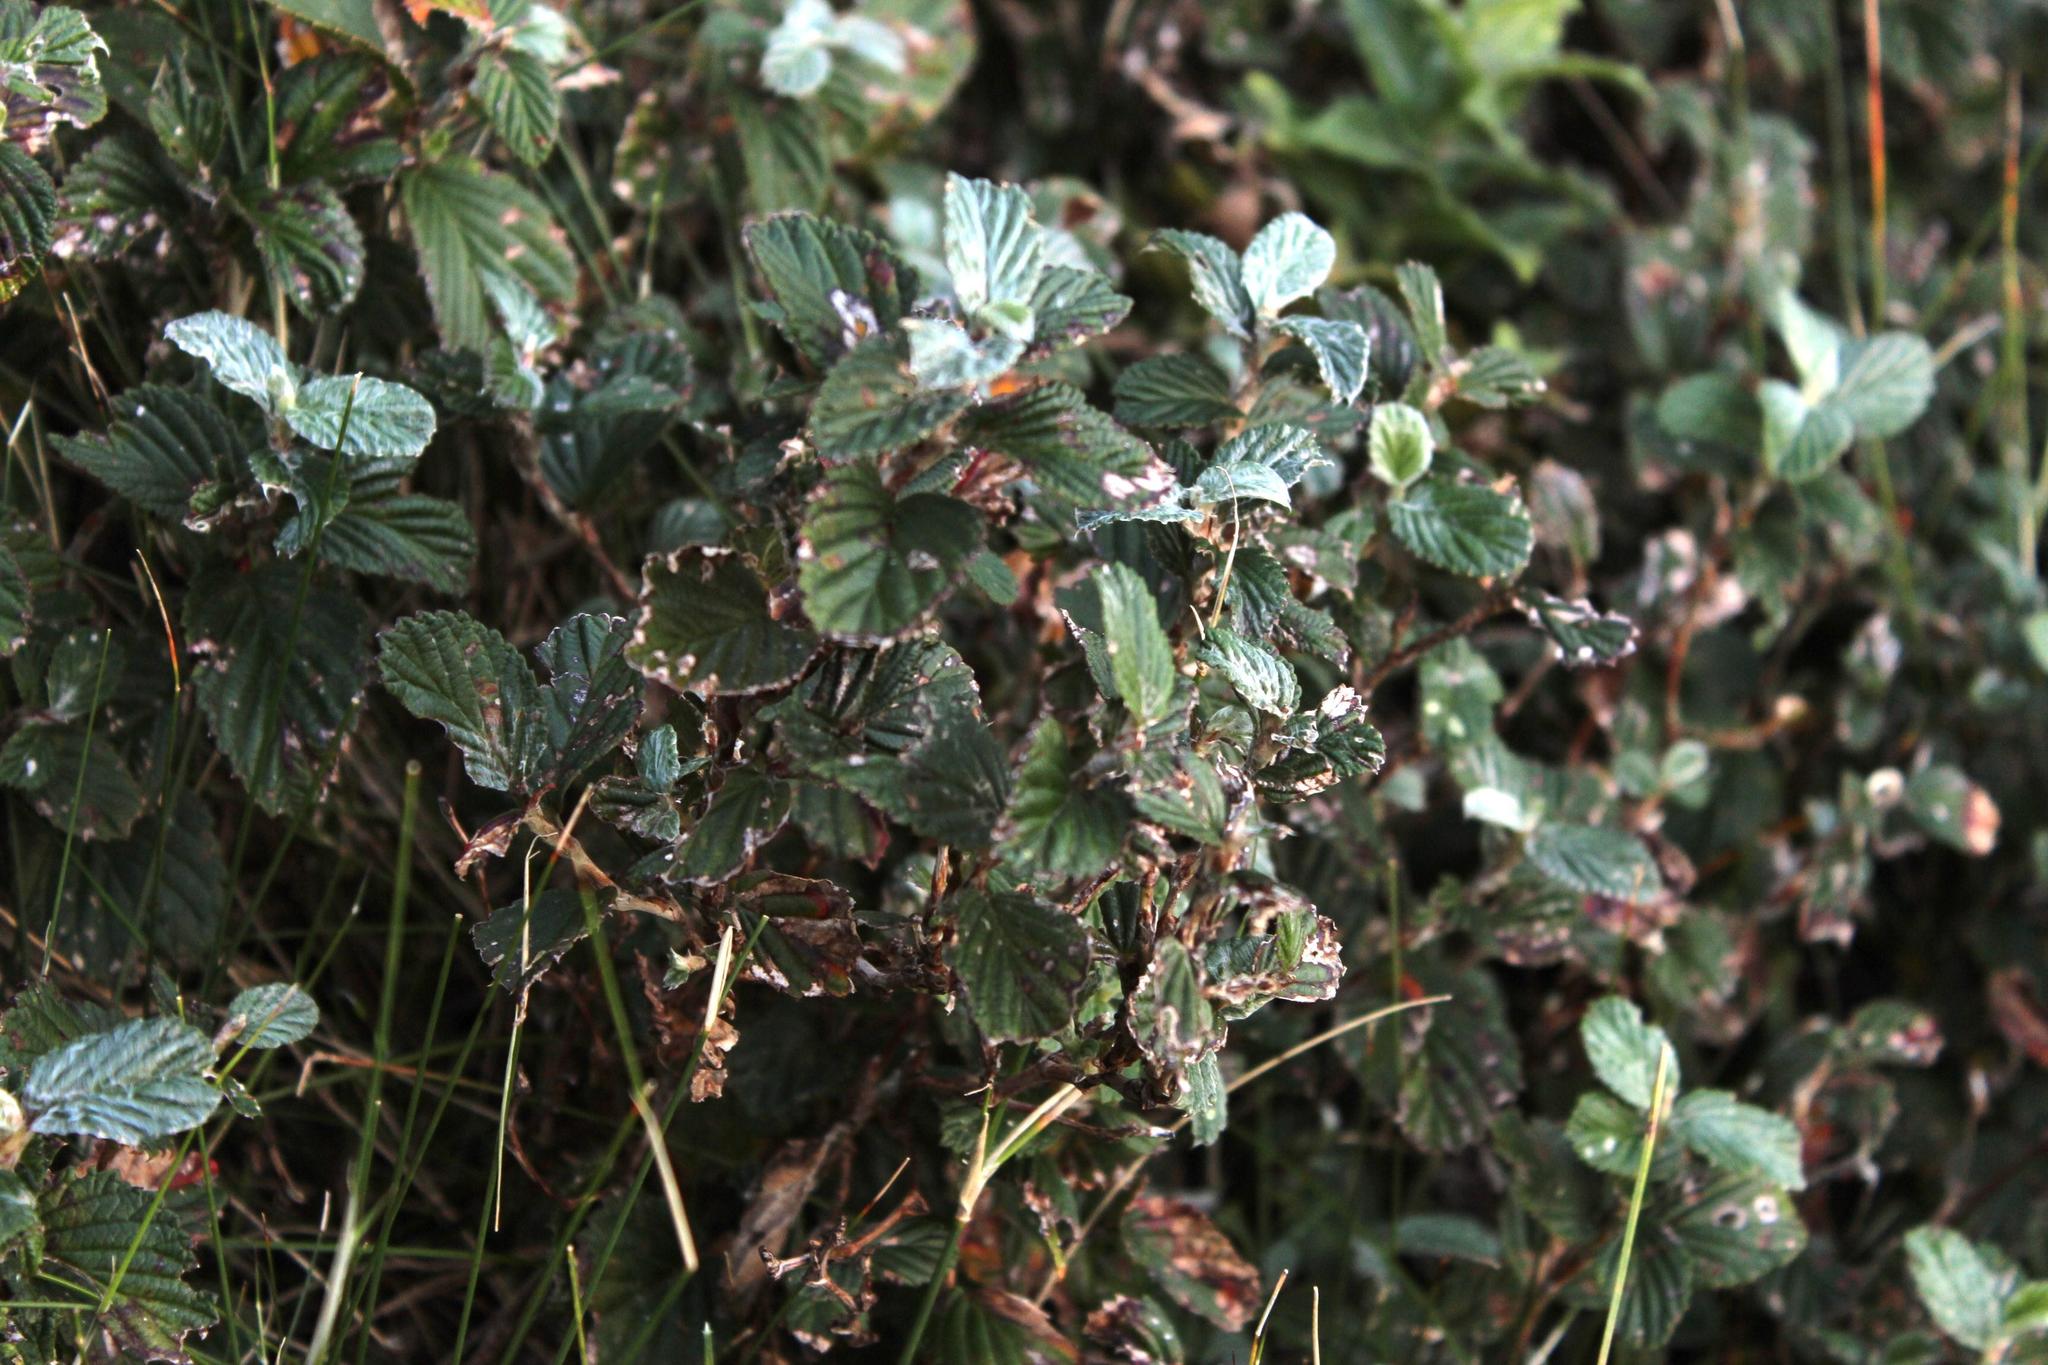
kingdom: Plantae
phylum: Tracheophyta
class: Magnoliopsida
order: Rosales
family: Rosaceae
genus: Cliffortia
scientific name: Cliffortia odorata
